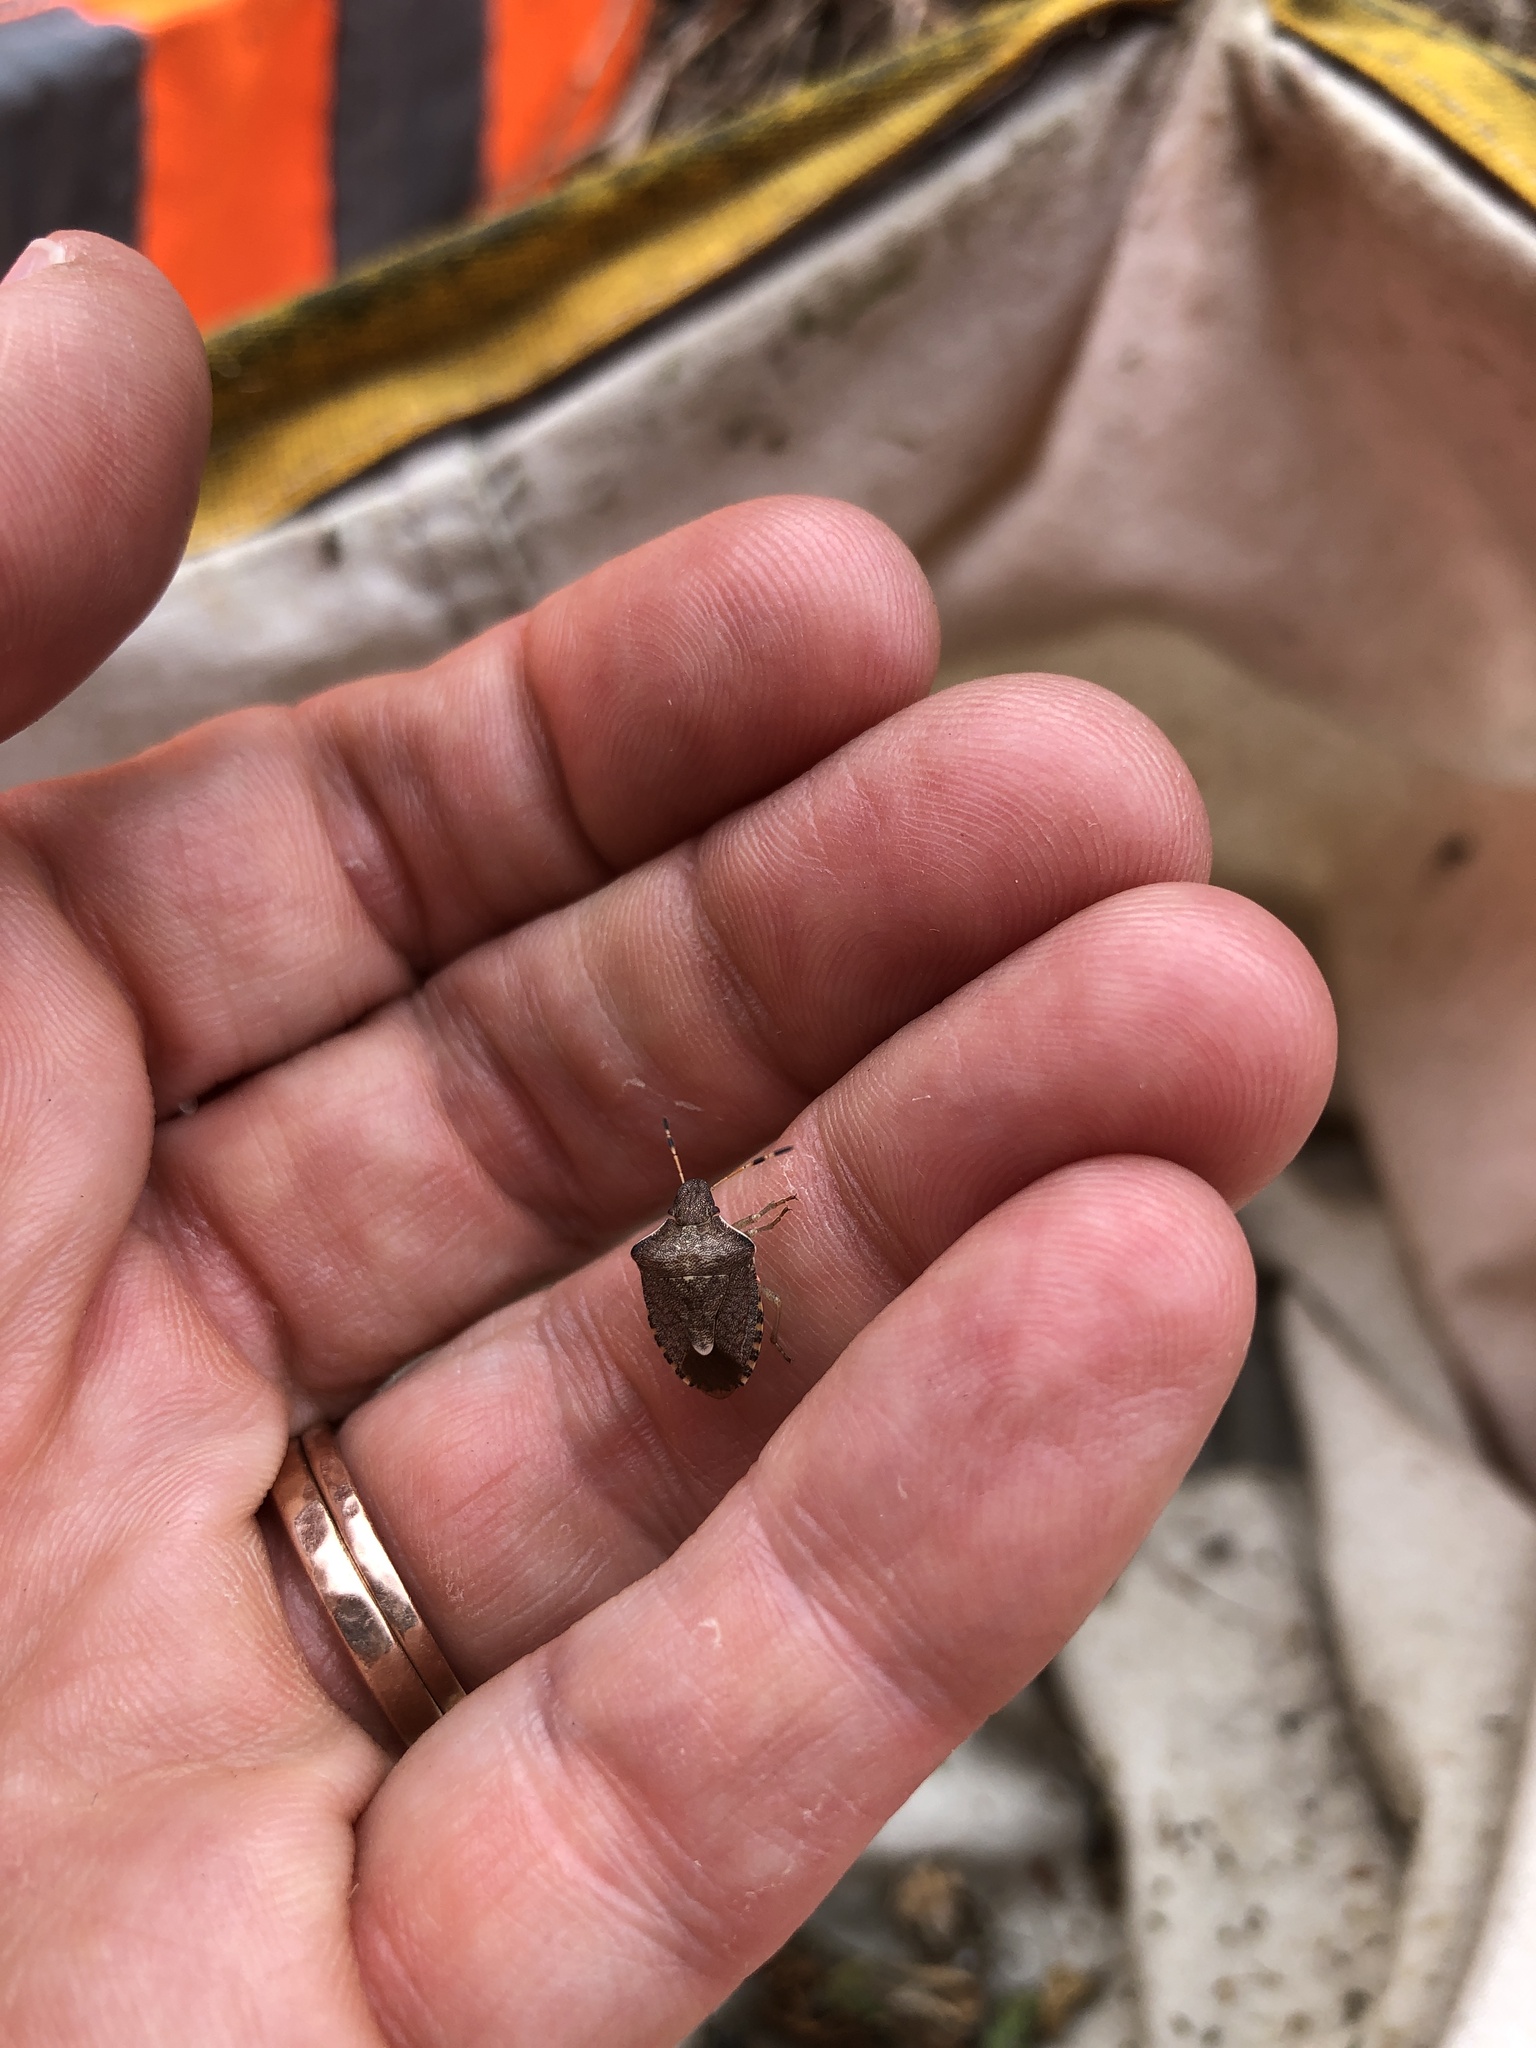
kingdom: Animalia
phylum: Arthropoda
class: Insecta
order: Hemiptera
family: Pentatomidae
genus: Holcostethus
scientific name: Holcostethus strictus
